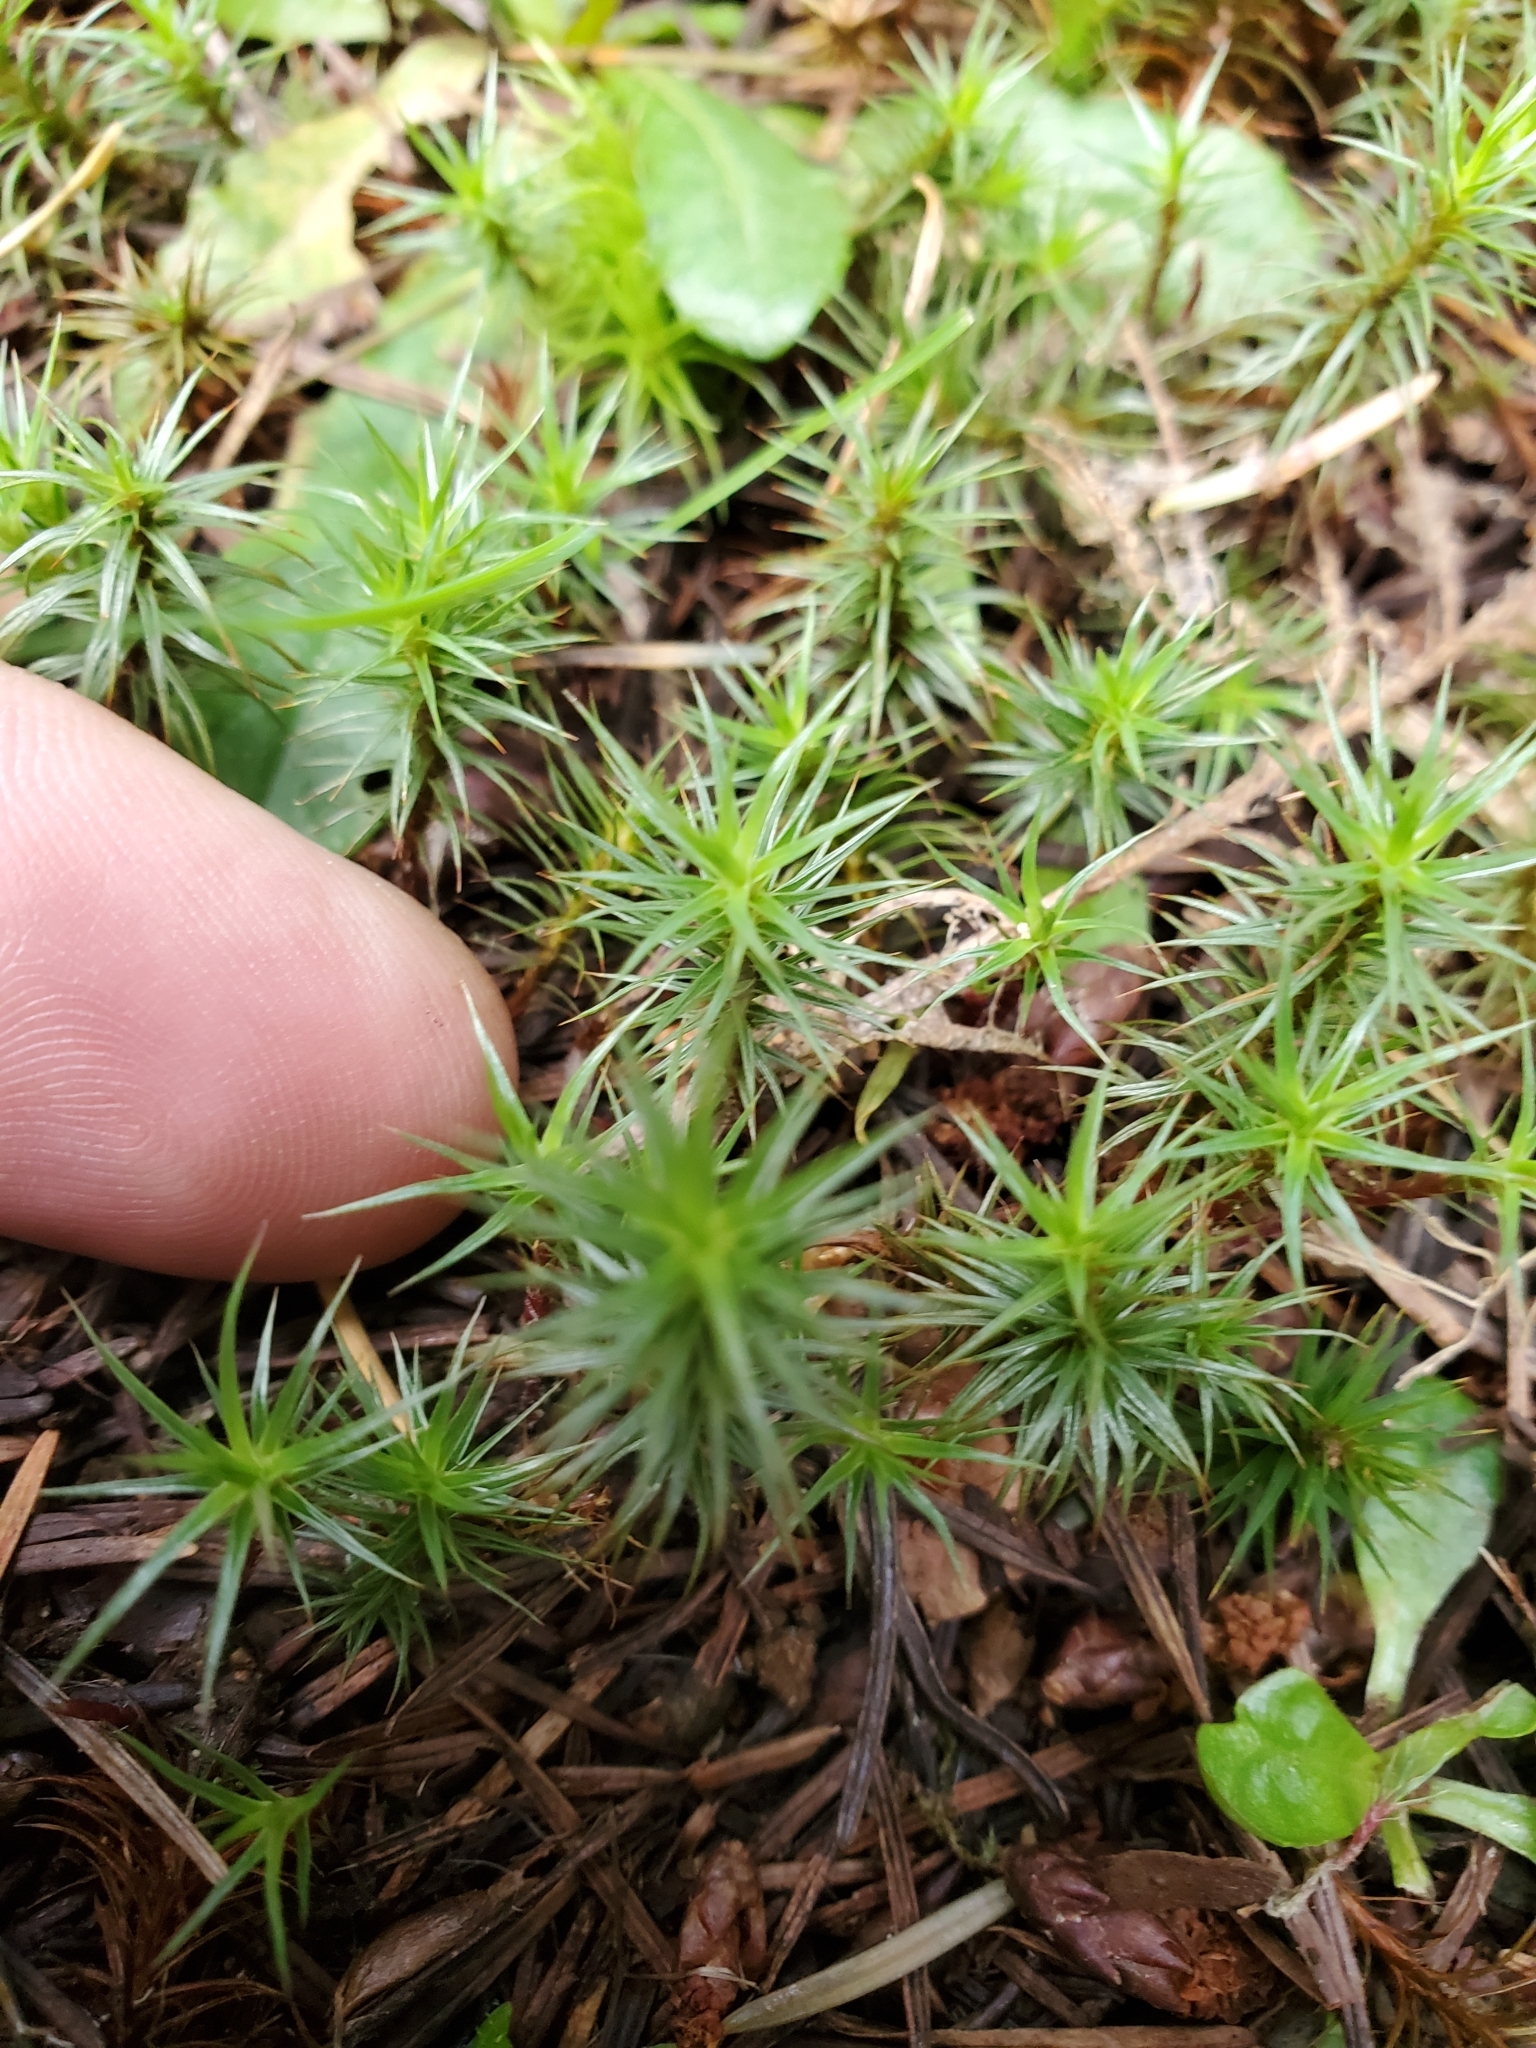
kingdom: Plantae
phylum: Bryophyta
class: Polytrichopsida
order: Polytrichales
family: Polytrichaceae
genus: Polytrichum
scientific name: Polytrichum juniperinum
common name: Juniper haircap moss
